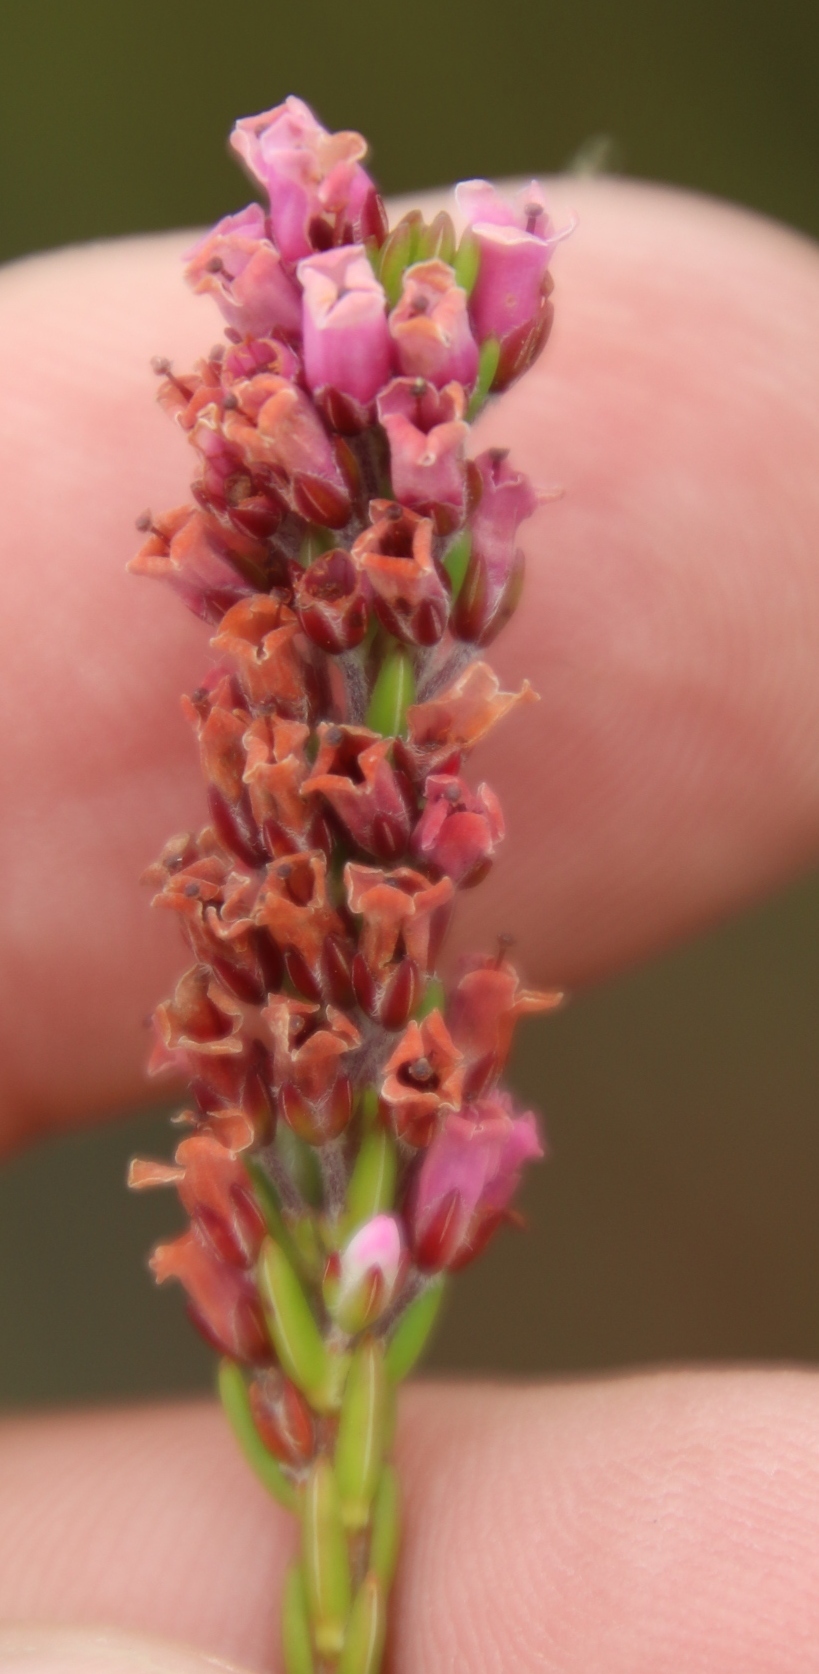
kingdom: Plantae
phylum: Tracheophyta
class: Magnoliopsida
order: Ericales
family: Ericaceae
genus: Erica
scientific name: Erica longiaristata
